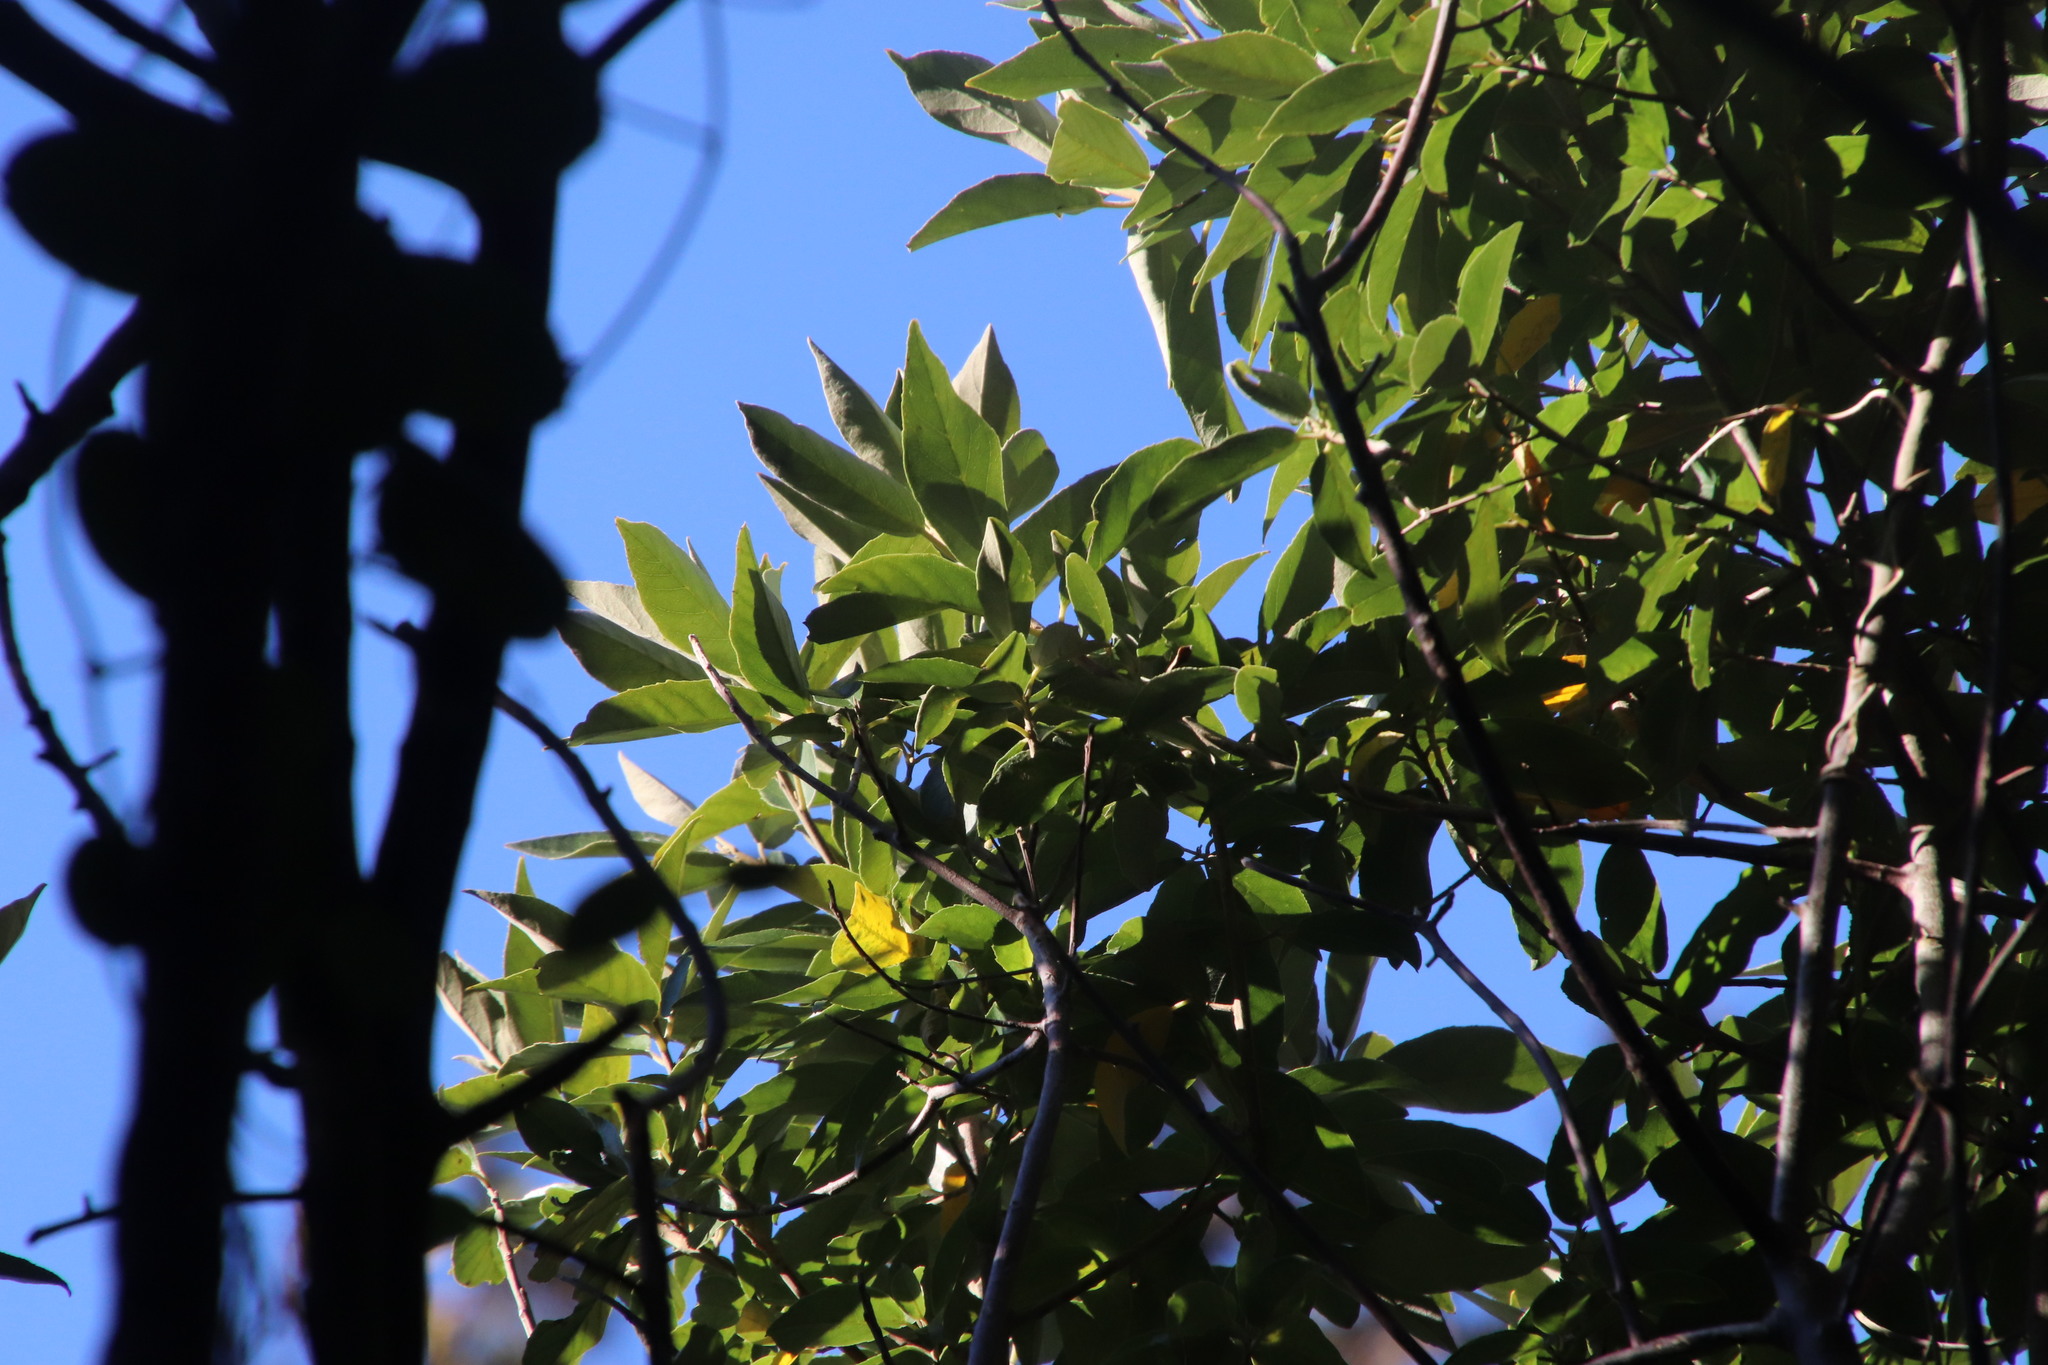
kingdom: Plantae
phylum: Tracheophyta
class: Magnoliopsida
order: Malpighiales
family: Achariaceae
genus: Kiggelaria
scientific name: Kiggelaria africana
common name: Wild peach
